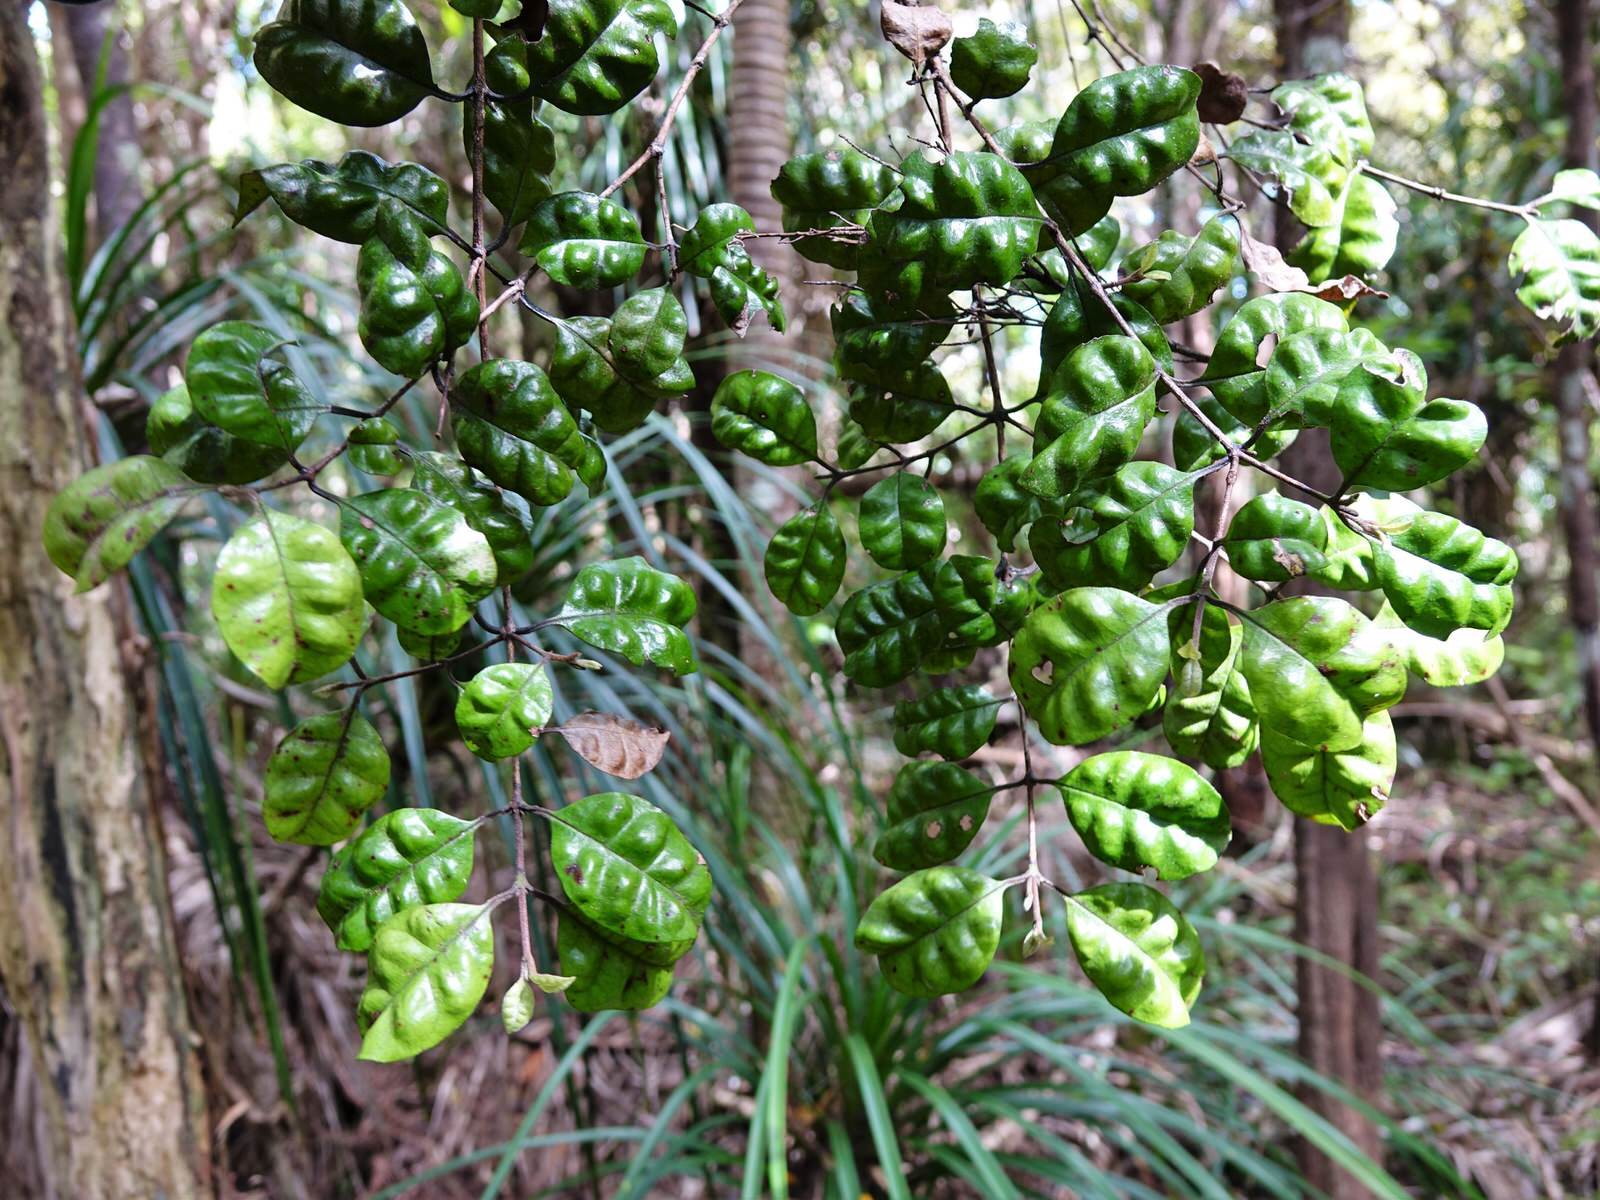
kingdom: Plantae
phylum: Tracheophyta
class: Magnoliopsida
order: Myrtales
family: Myrtaceae
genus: Lophomyrtus
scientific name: Lophomyrtus bullata
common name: Rama rama
